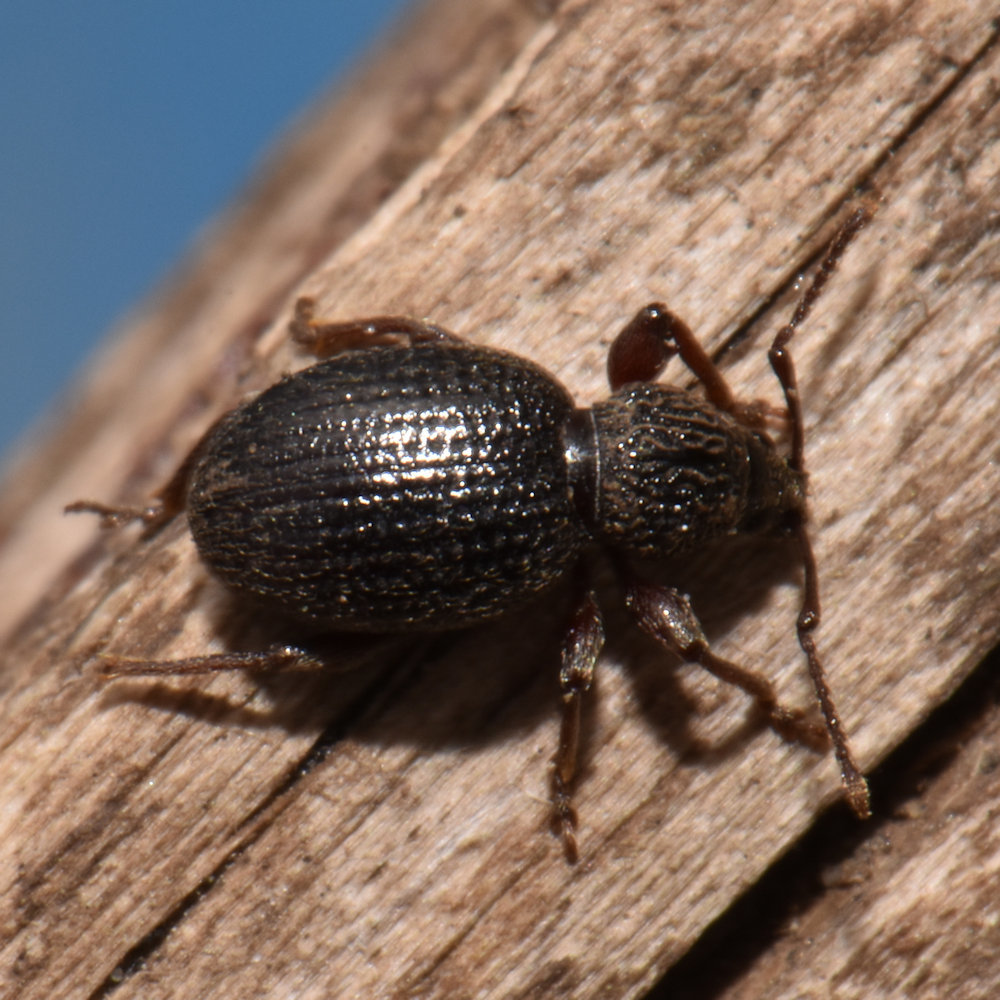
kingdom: Animalia
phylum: Arthropoda
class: Insecta
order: Coleoptera
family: Curculionidae
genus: Otiorhynchus
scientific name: Otiorhynchus ovatus
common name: Strawberry root weevil
